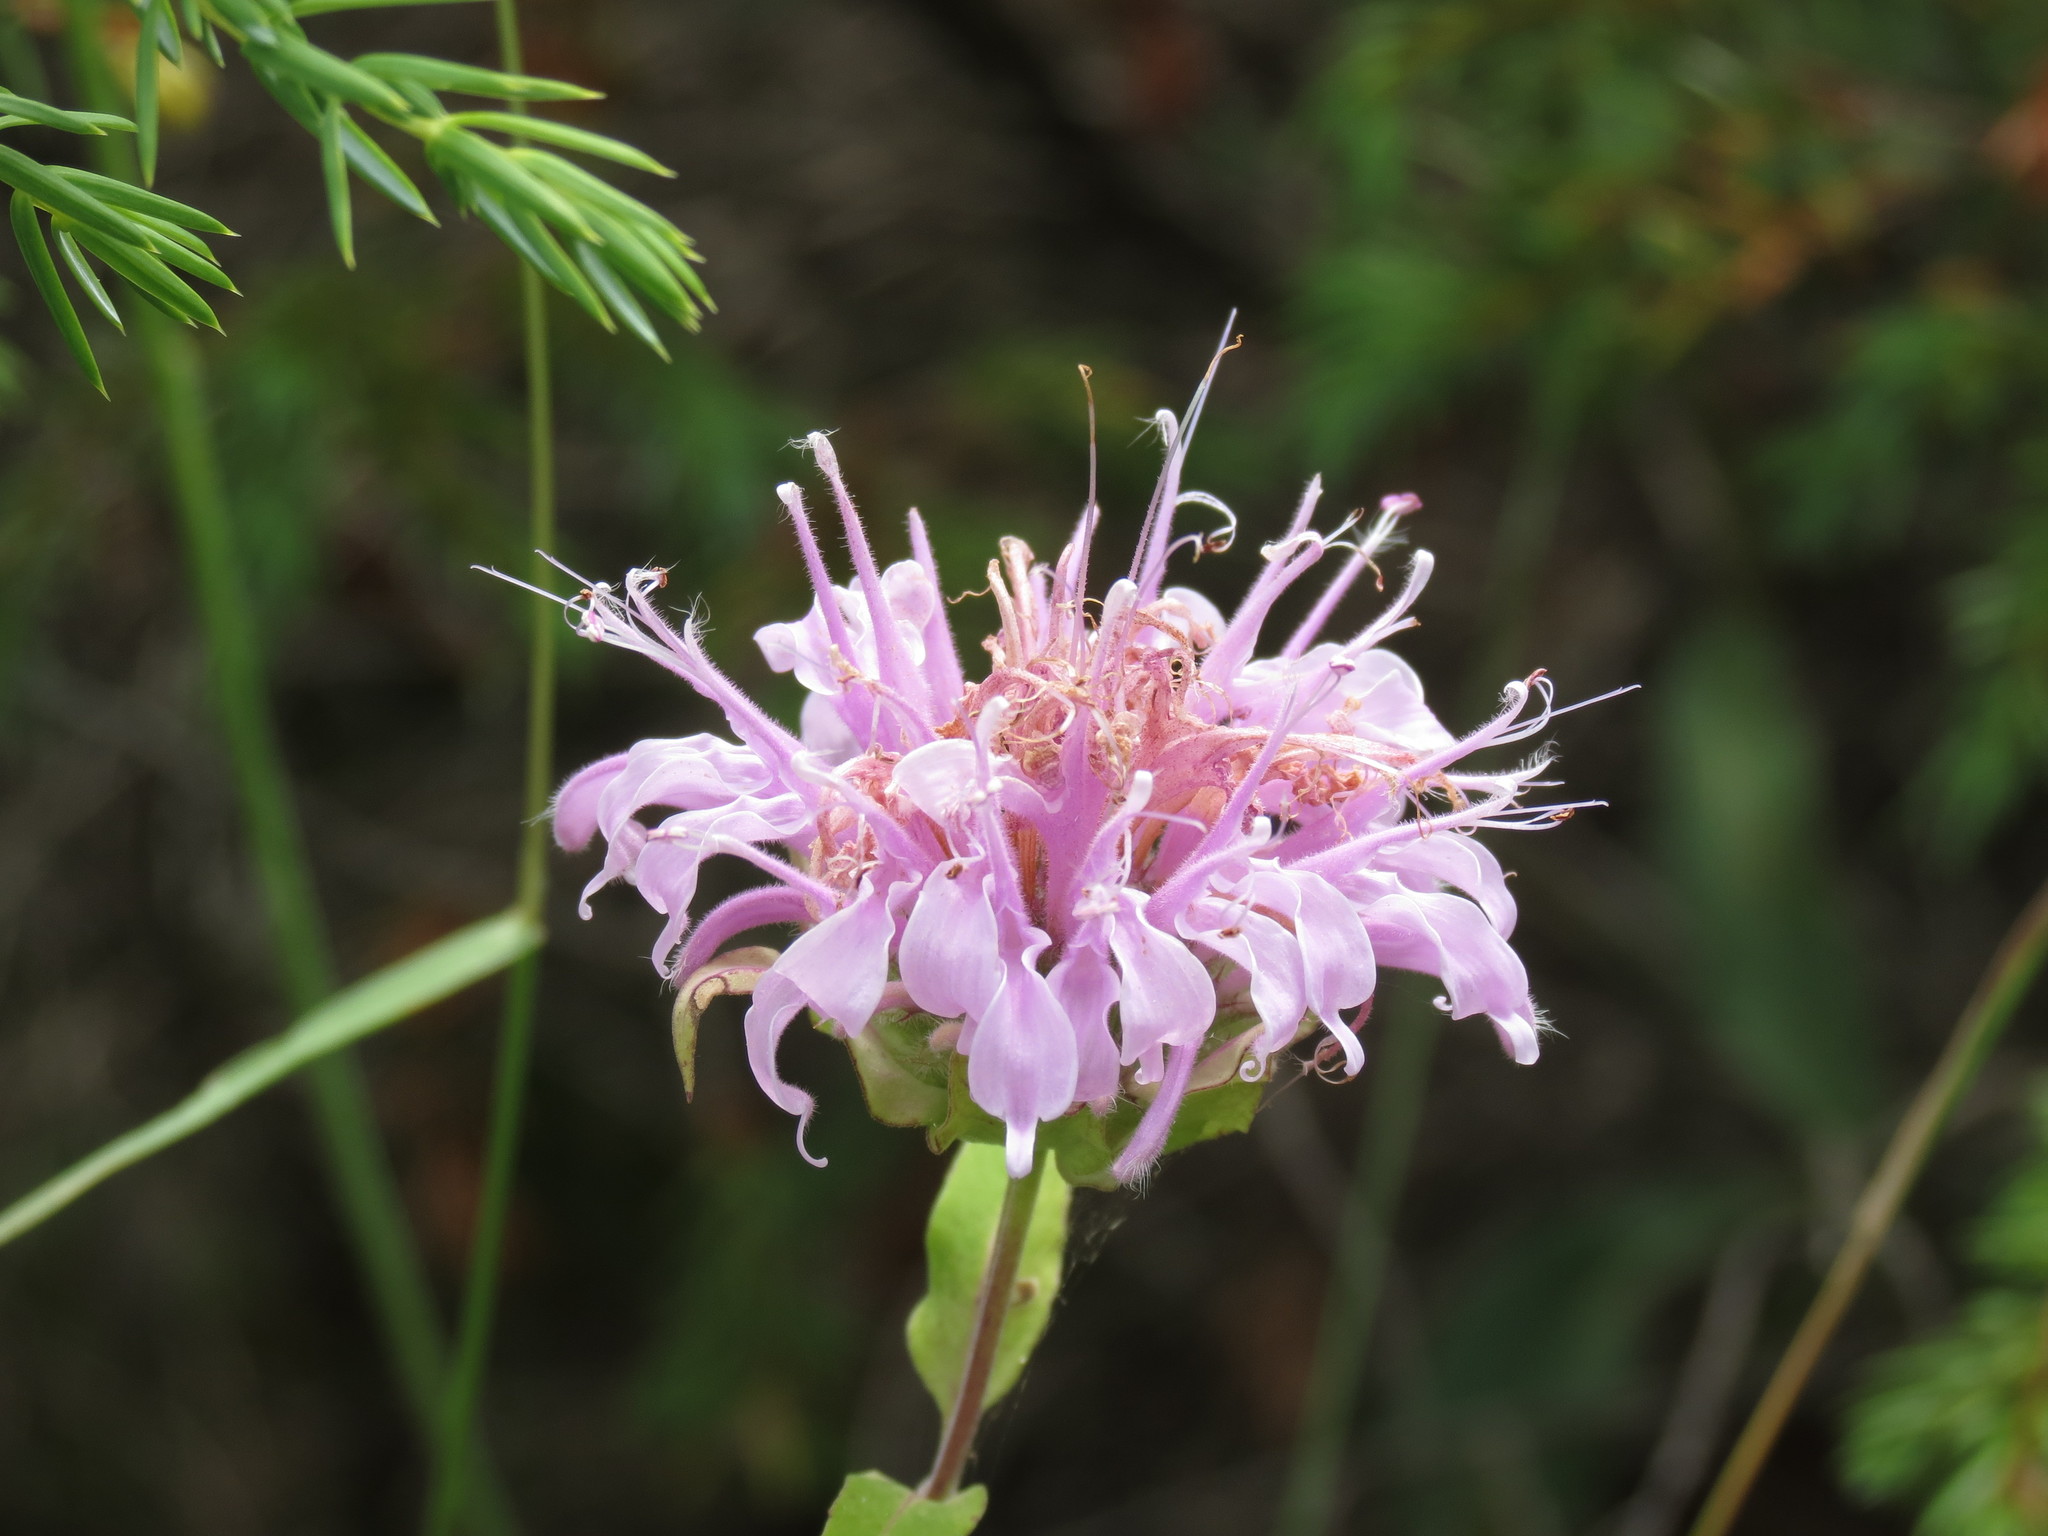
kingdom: Plantae
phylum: Tracheophyta
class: Magnoliopsida
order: Lamiales
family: Lamiaceae
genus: Monarda
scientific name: Monarda fistulosa
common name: Purple beebalm
